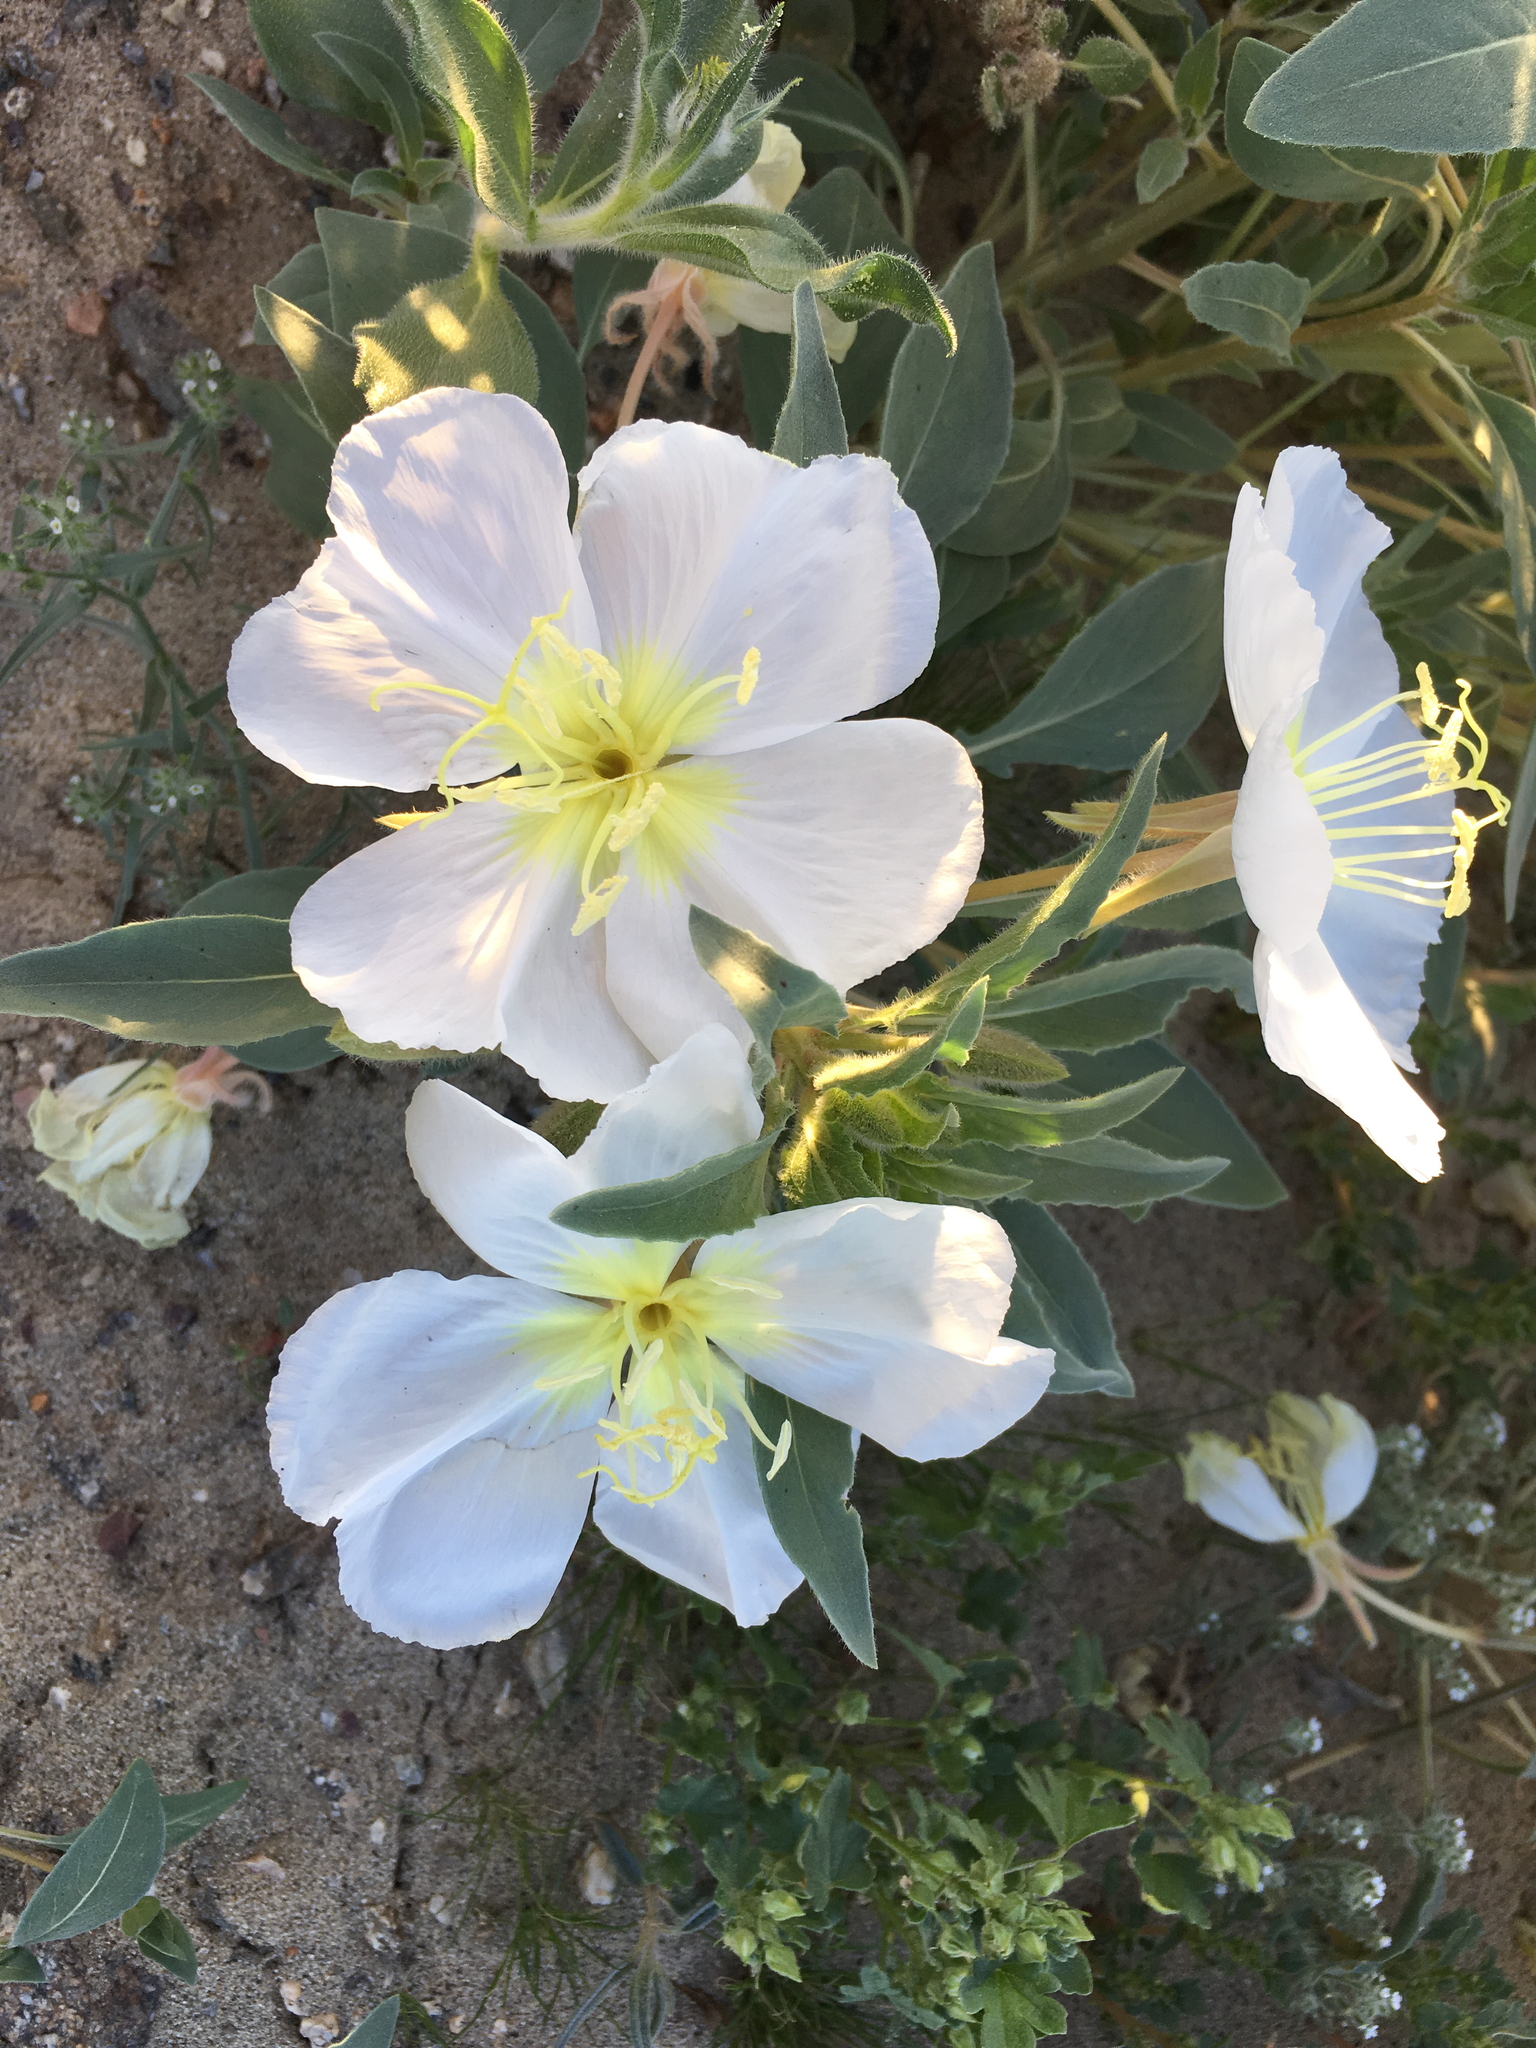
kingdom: Plantae
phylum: Tracheophyta
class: Magnoliopsida
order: Myrtales
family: Onagraceae
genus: Oenothera
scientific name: Oenothera deltoides
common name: Basket evening-primrose
